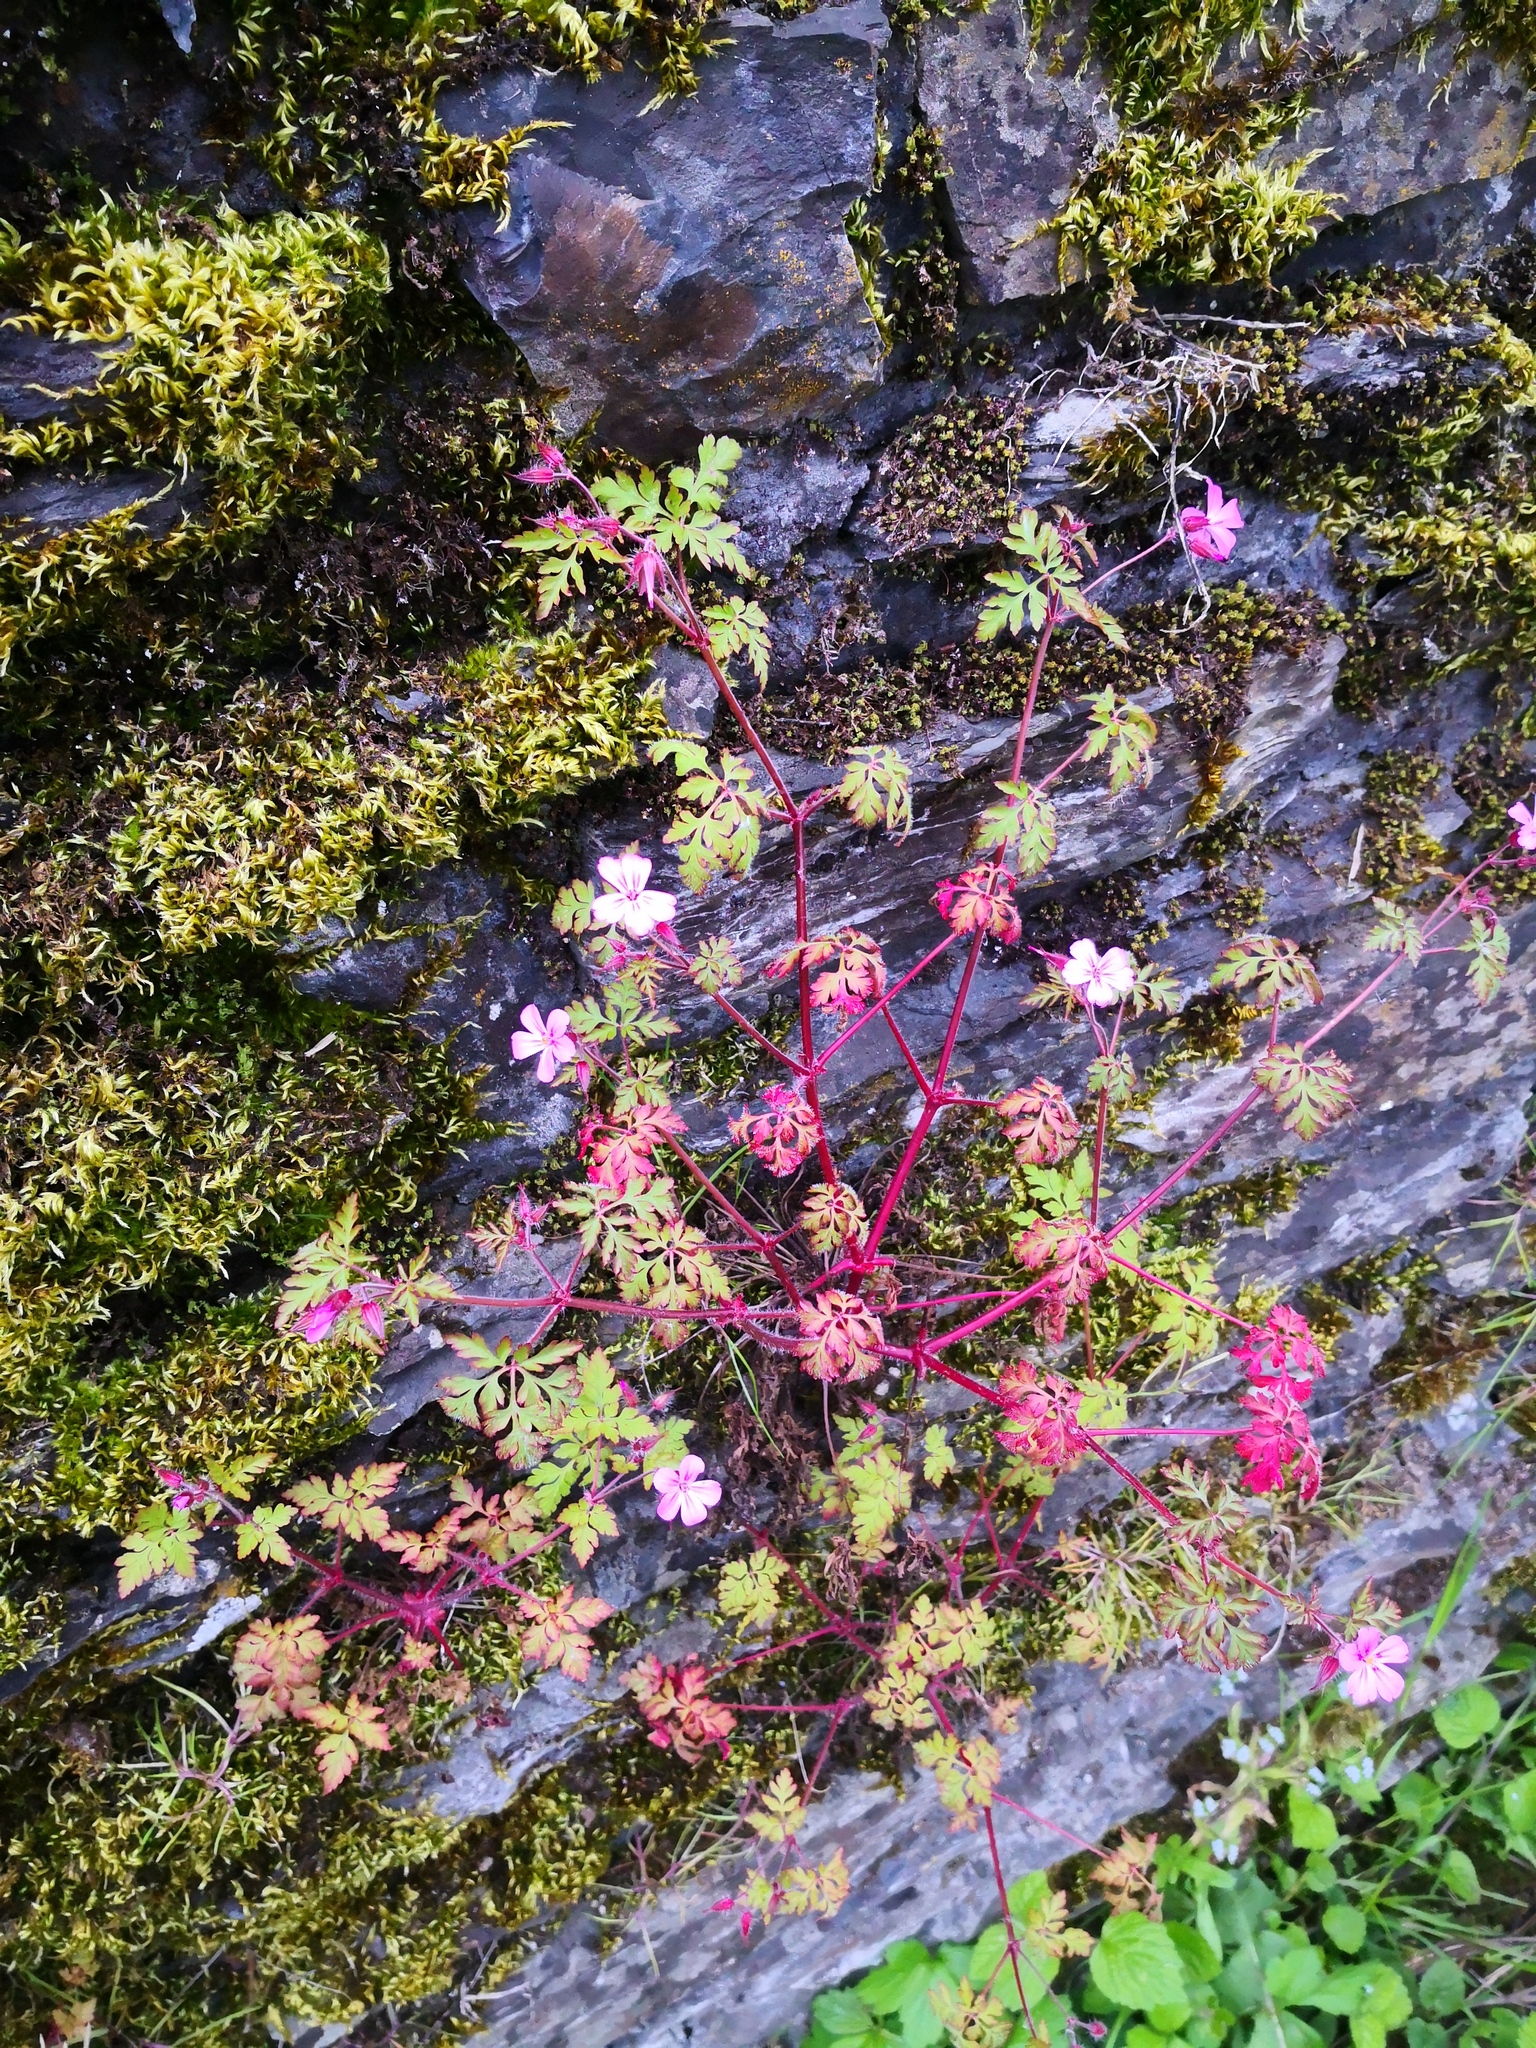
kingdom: Plantae
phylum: Tracheophyta
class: Magnoliopsida
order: Geraniales
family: Geraniaceae
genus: Geranium
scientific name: Geranium robertianum
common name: Herb-robert
